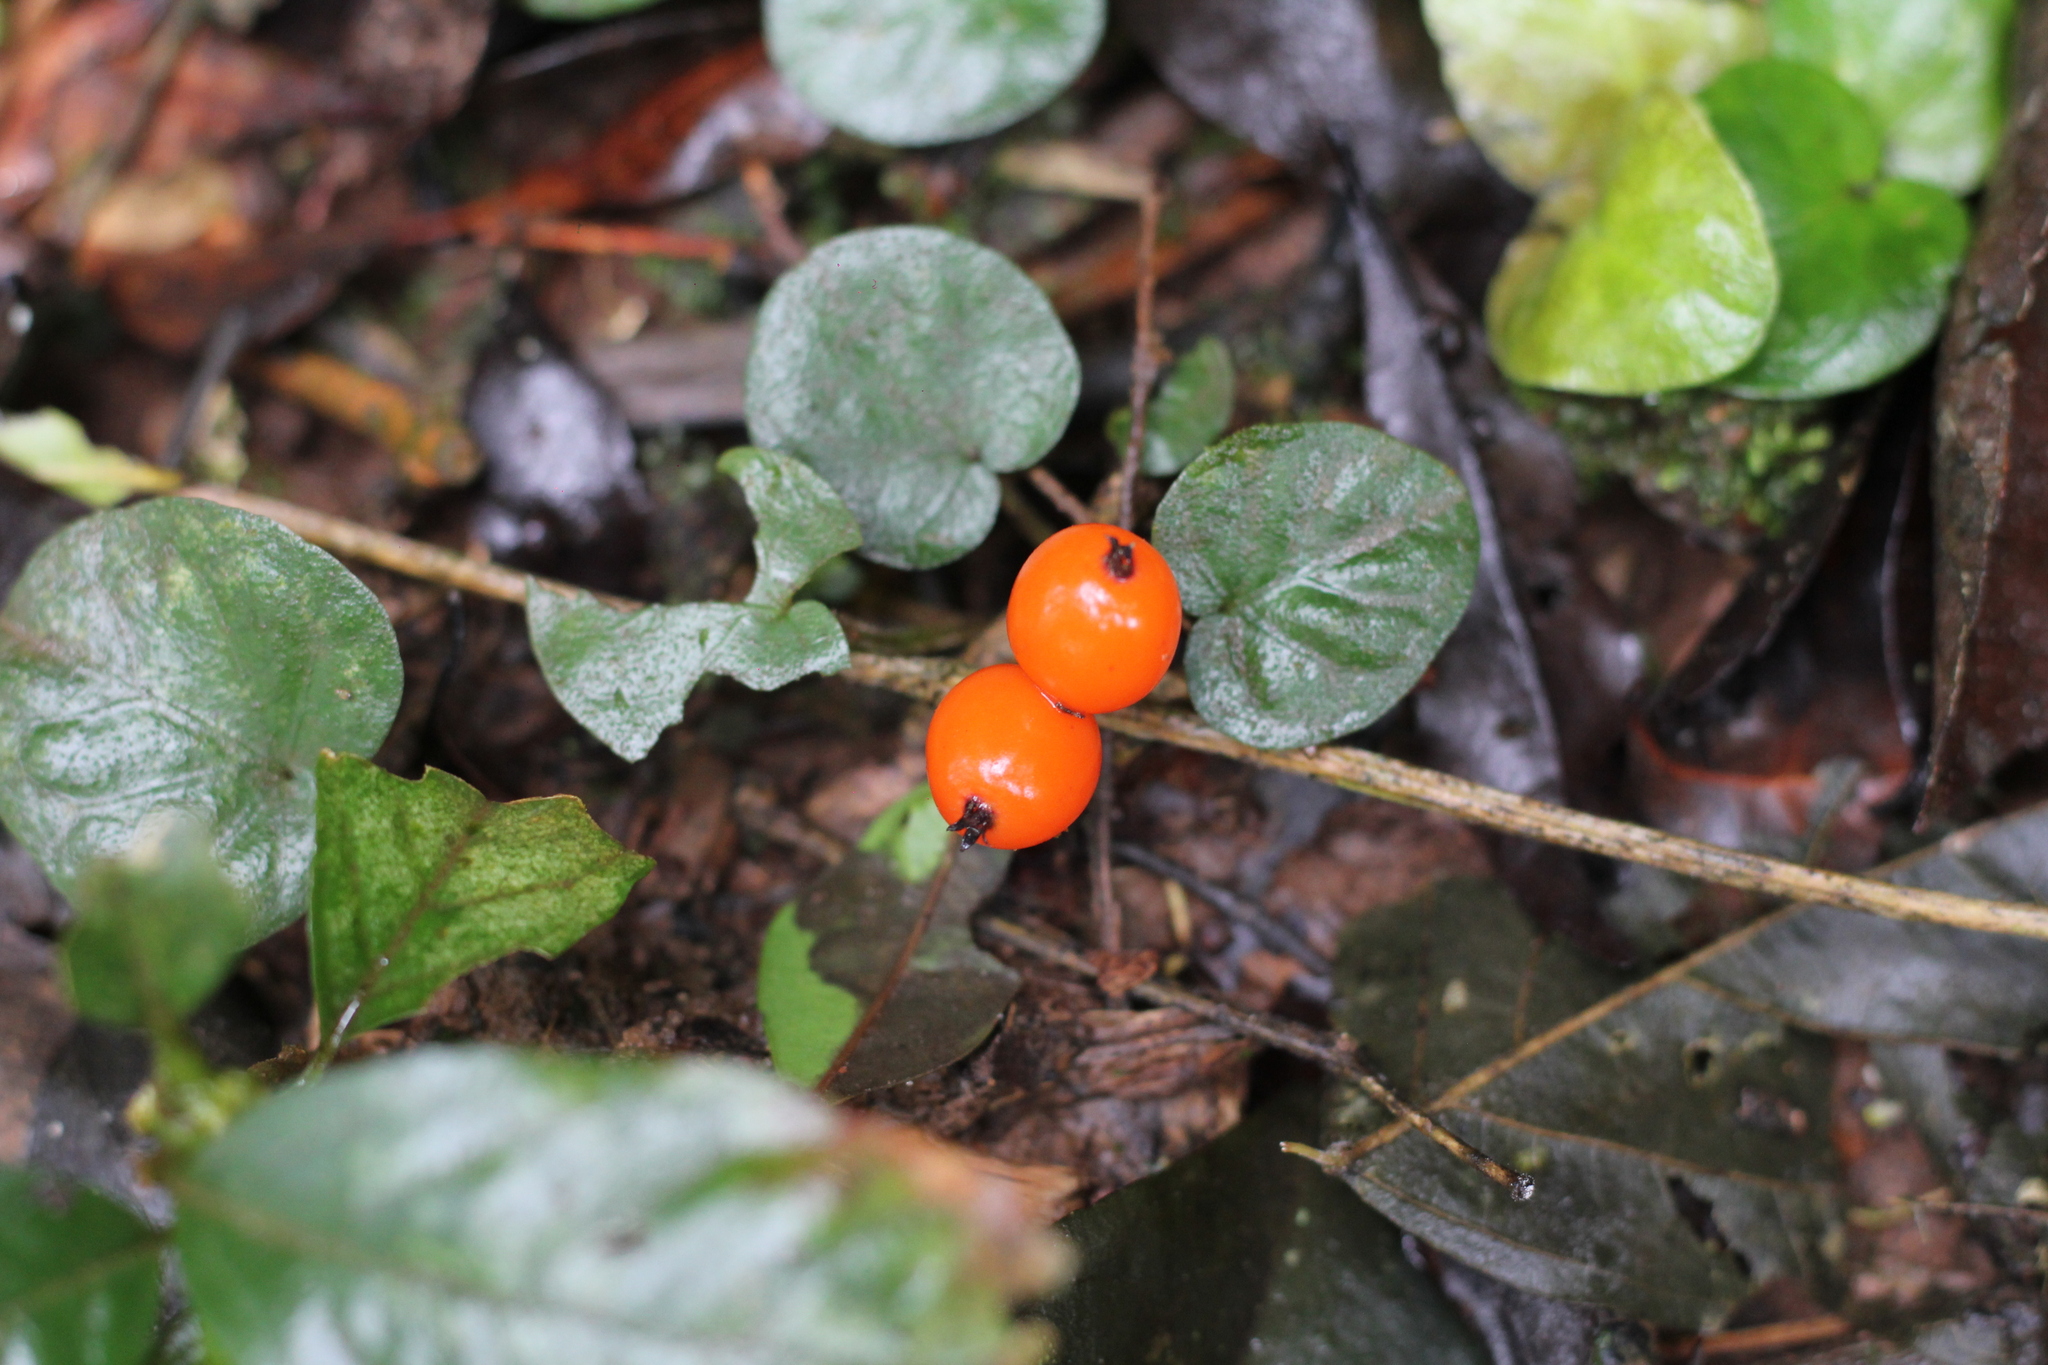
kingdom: Plantae
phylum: Tracheophyta
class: Magnoliopsida
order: Gentianales
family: Rubiaceae
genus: Geophila
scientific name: Geophila repens
